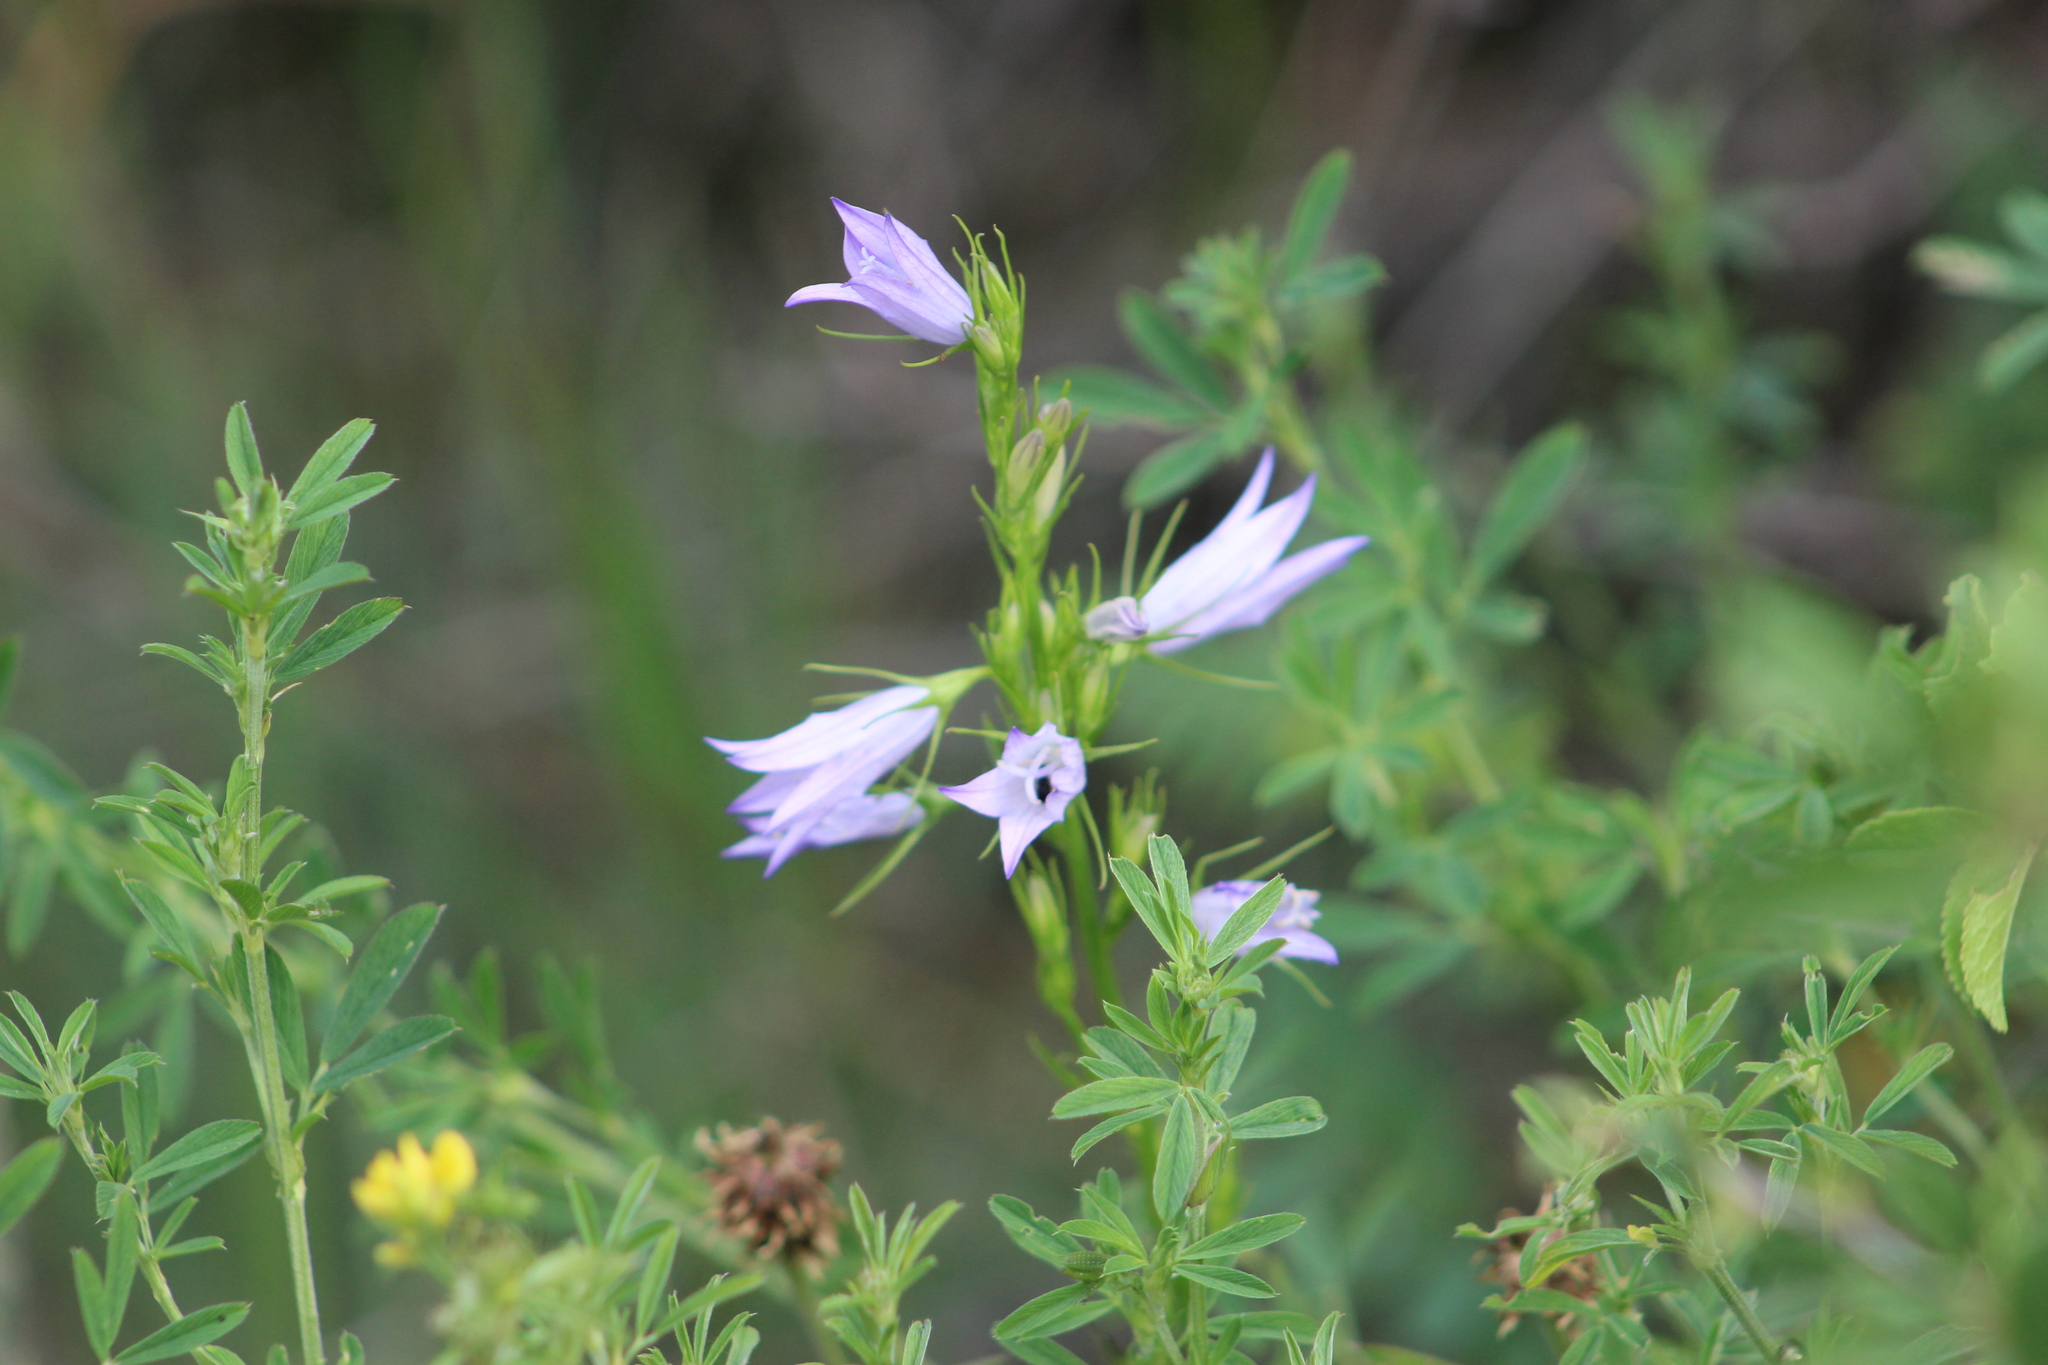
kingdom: Plantae
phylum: Tracheophyta
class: Magnoliopsida
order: Asterales
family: Campanulaceae
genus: Campanula
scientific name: Campanula rapunculus
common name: Rampion bellflower
